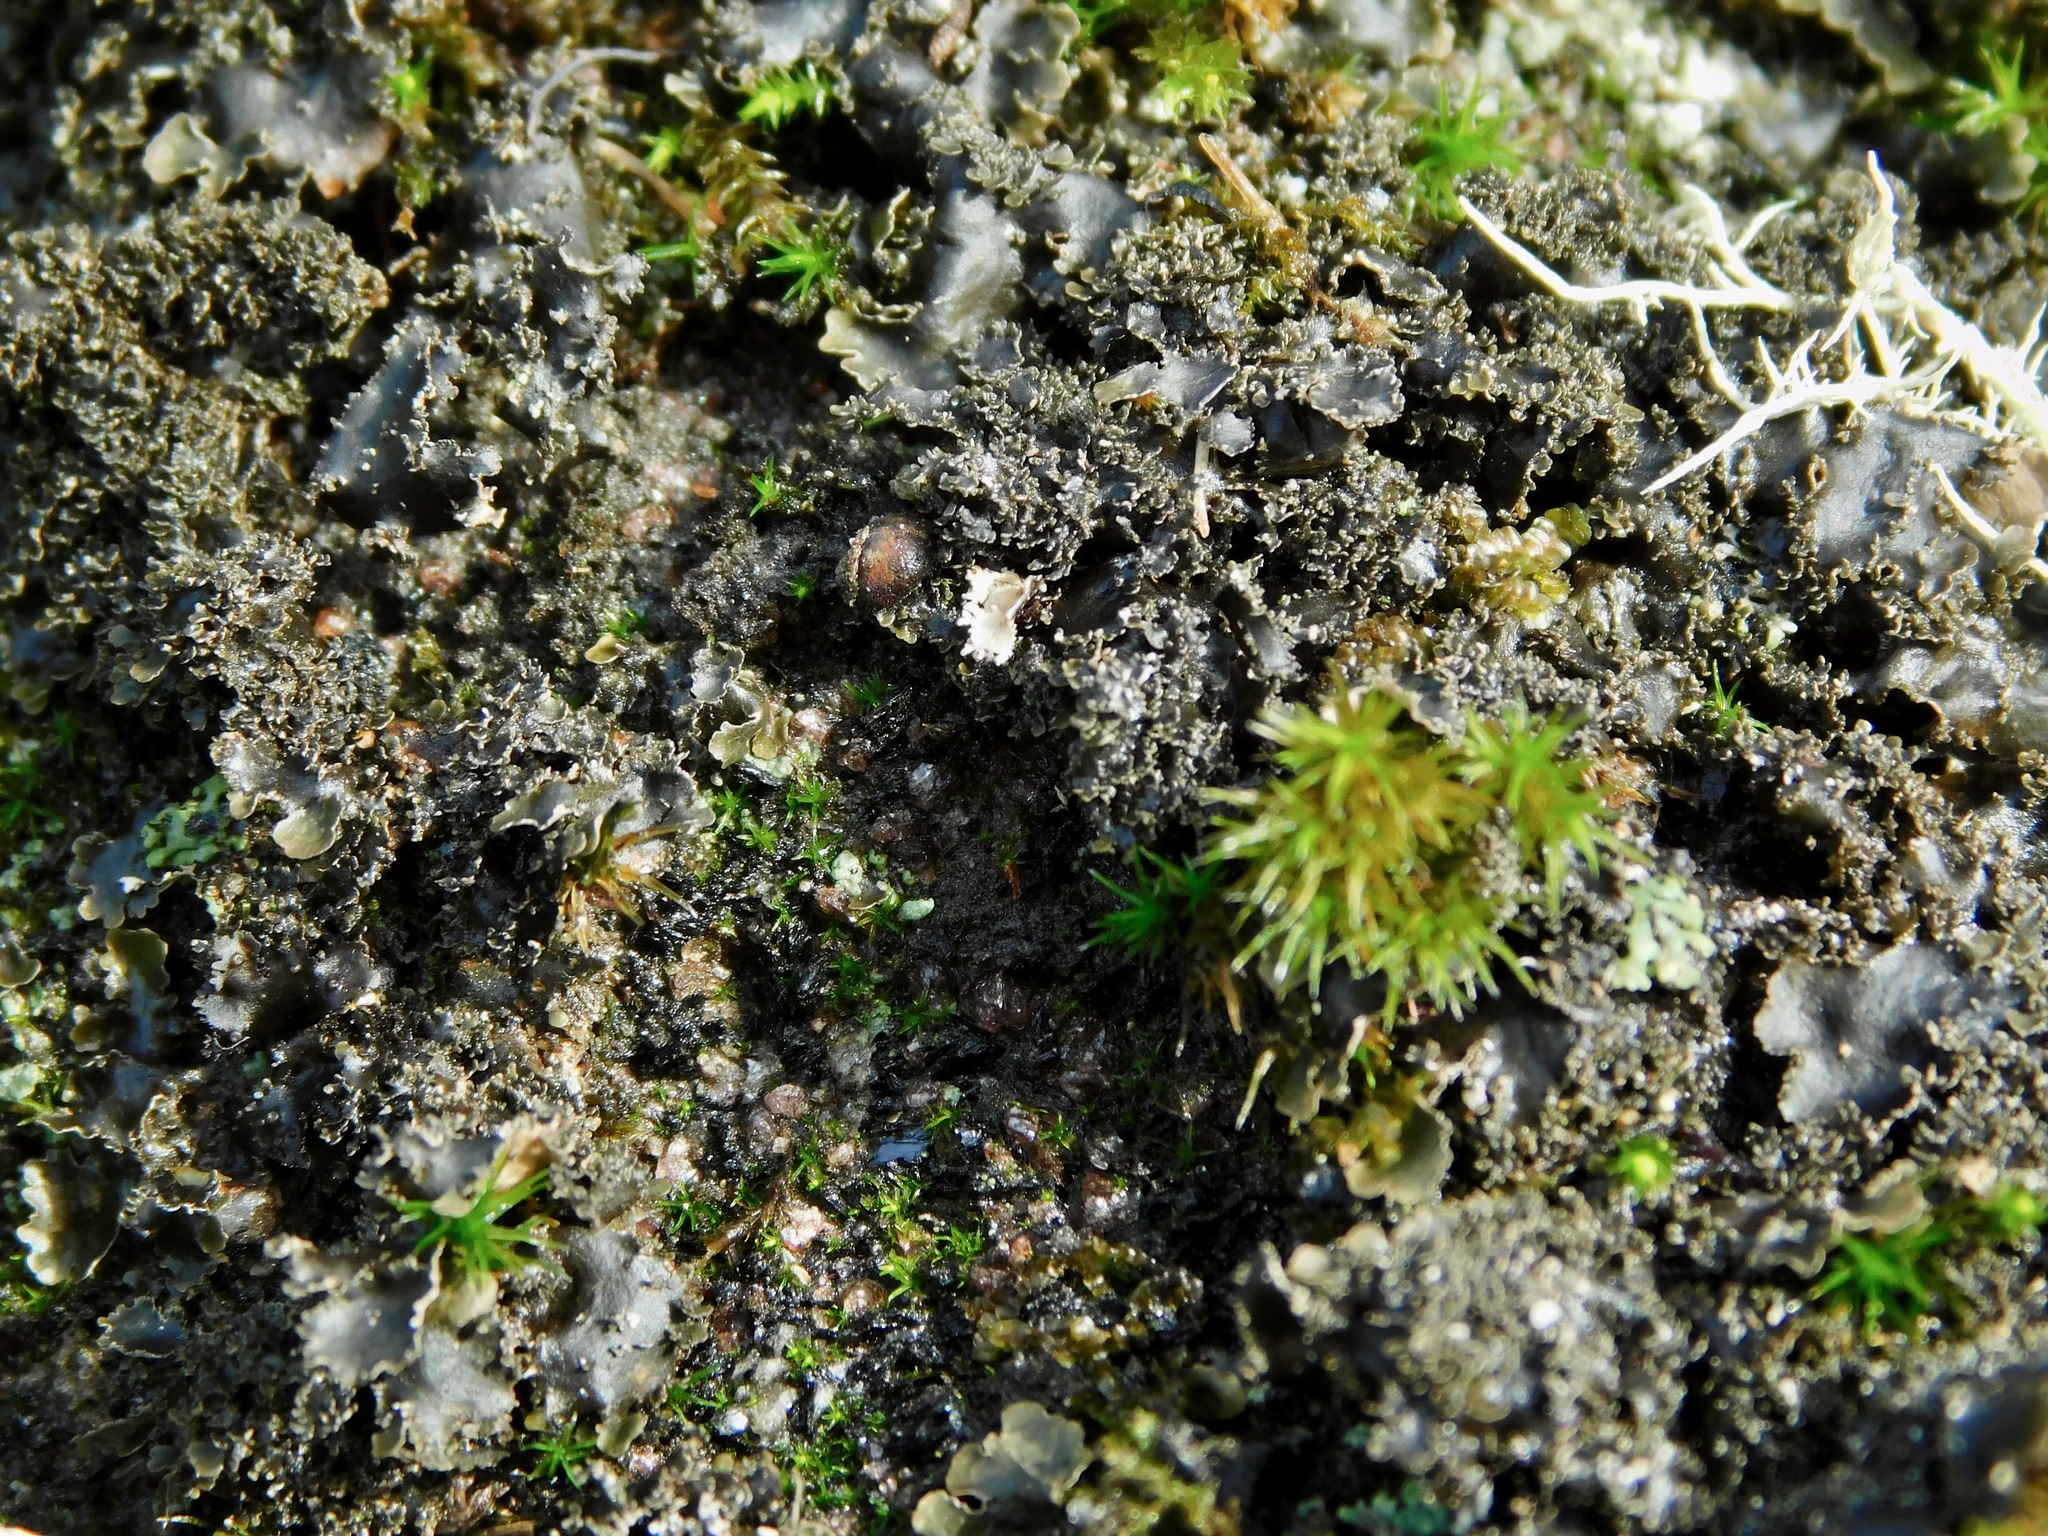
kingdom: Fungi
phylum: Ascomycota
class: Lecanoromycetes
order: Peltigerales
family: Lobariaceae
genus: Sticta
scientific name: Sticta carolinensis
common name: Carolina moon lichen
